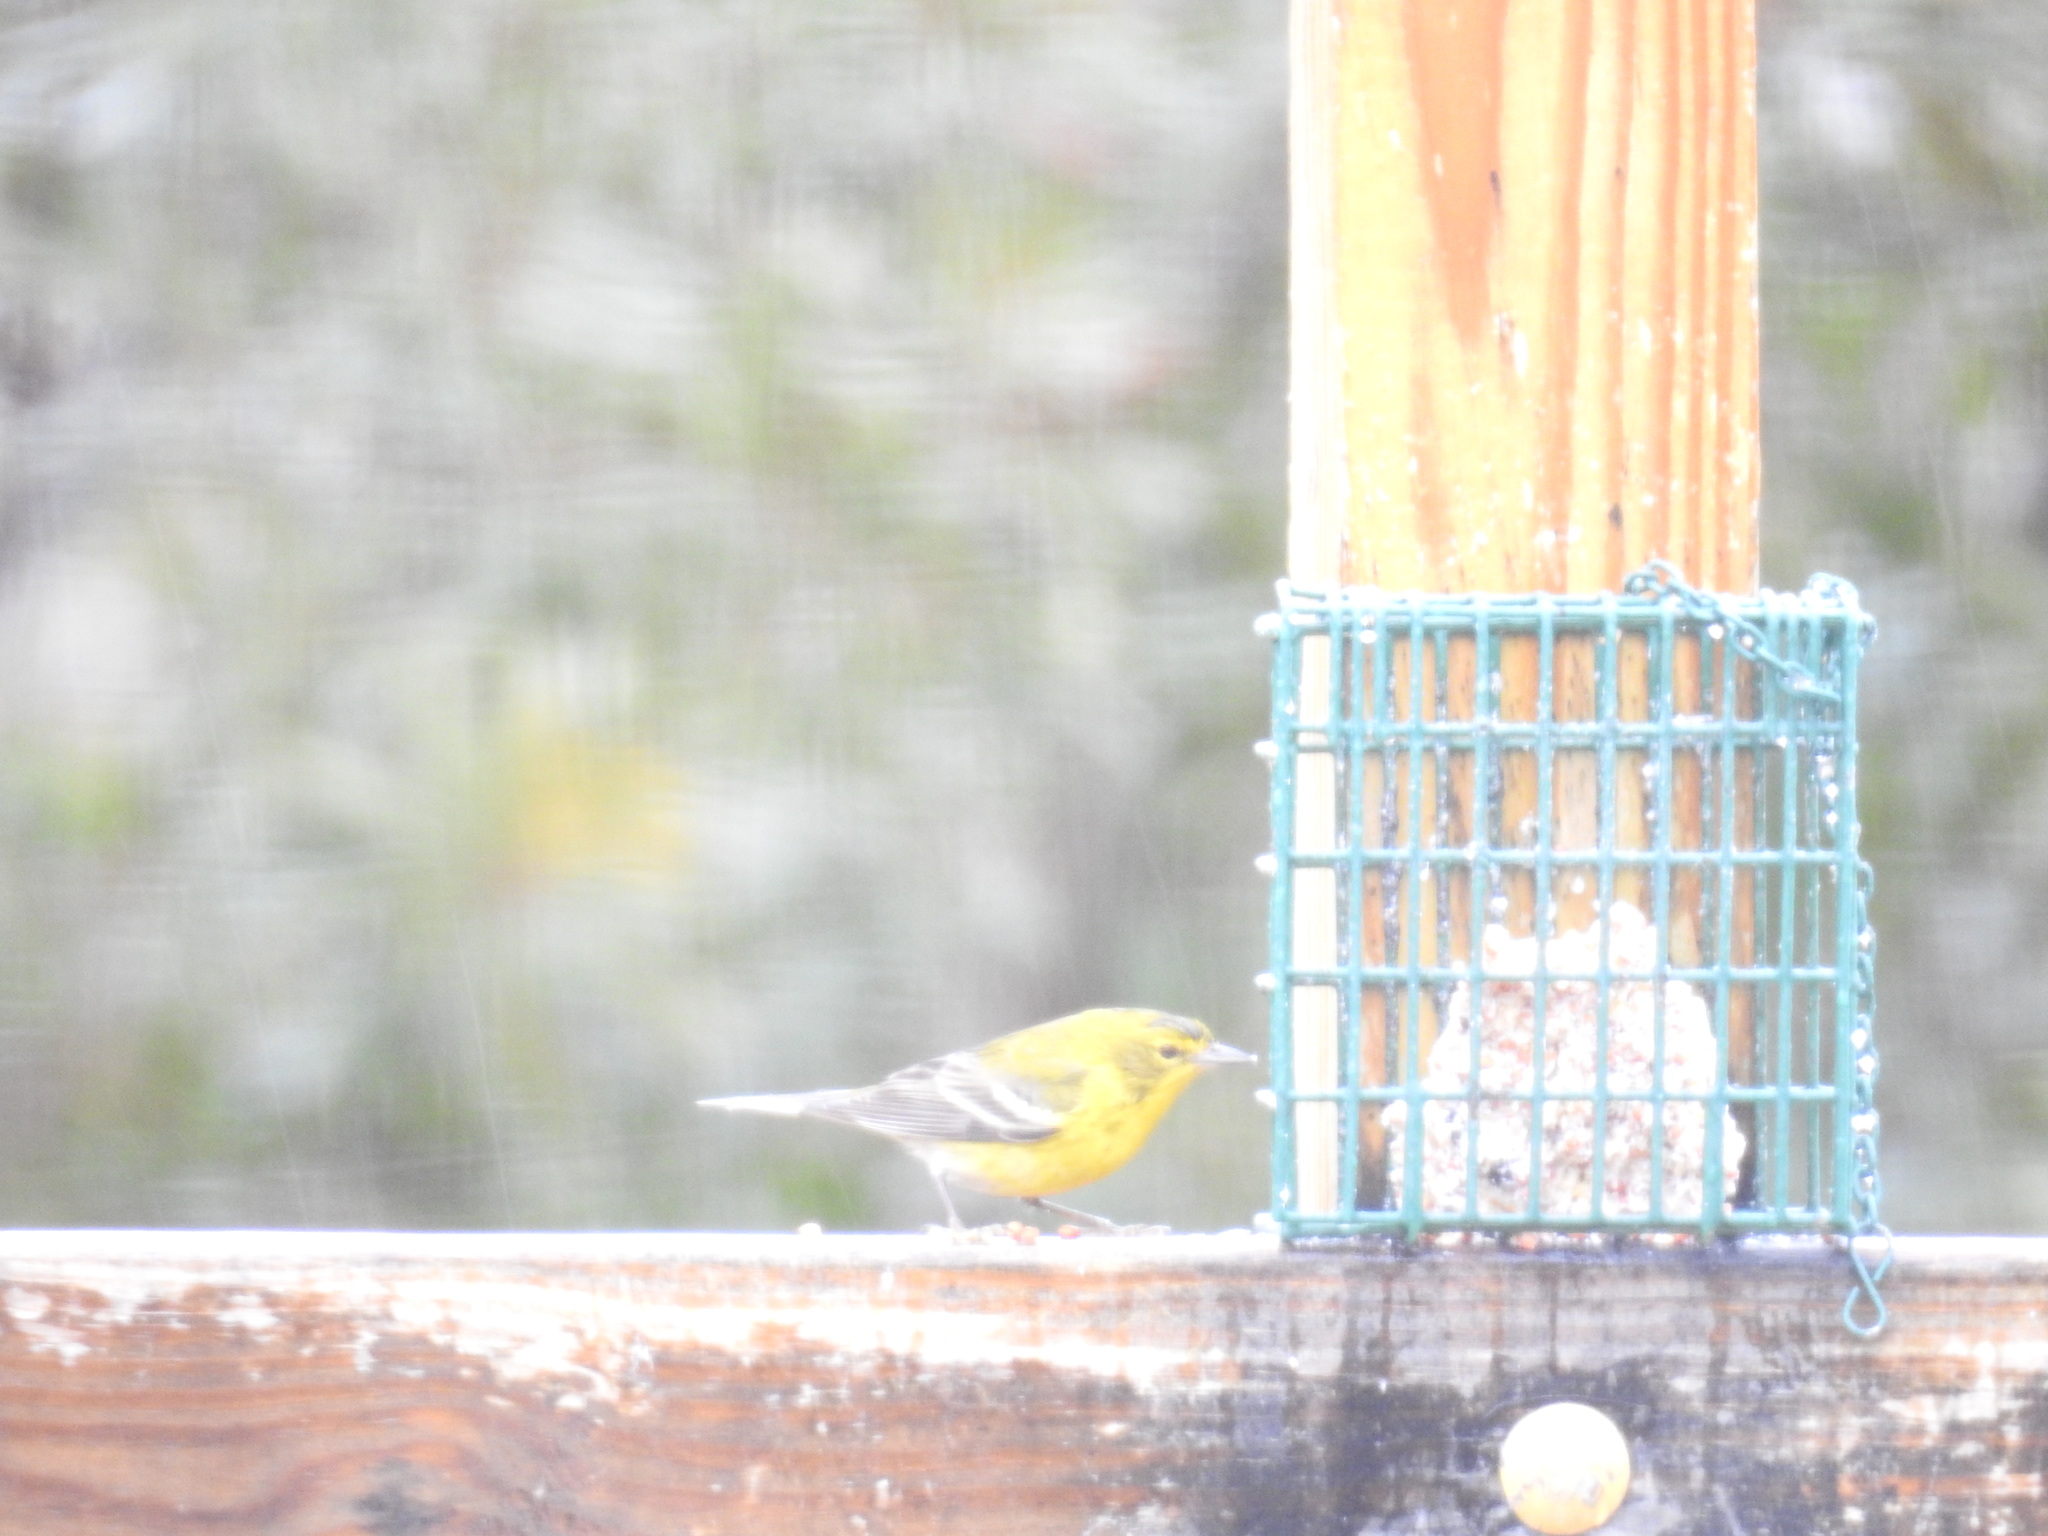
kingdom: Animalia
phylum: Chordata
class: Aves
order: Passeriformes
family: Parulidae
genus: Setophaga
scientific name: Setophaga pinus
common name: Pine warbler
